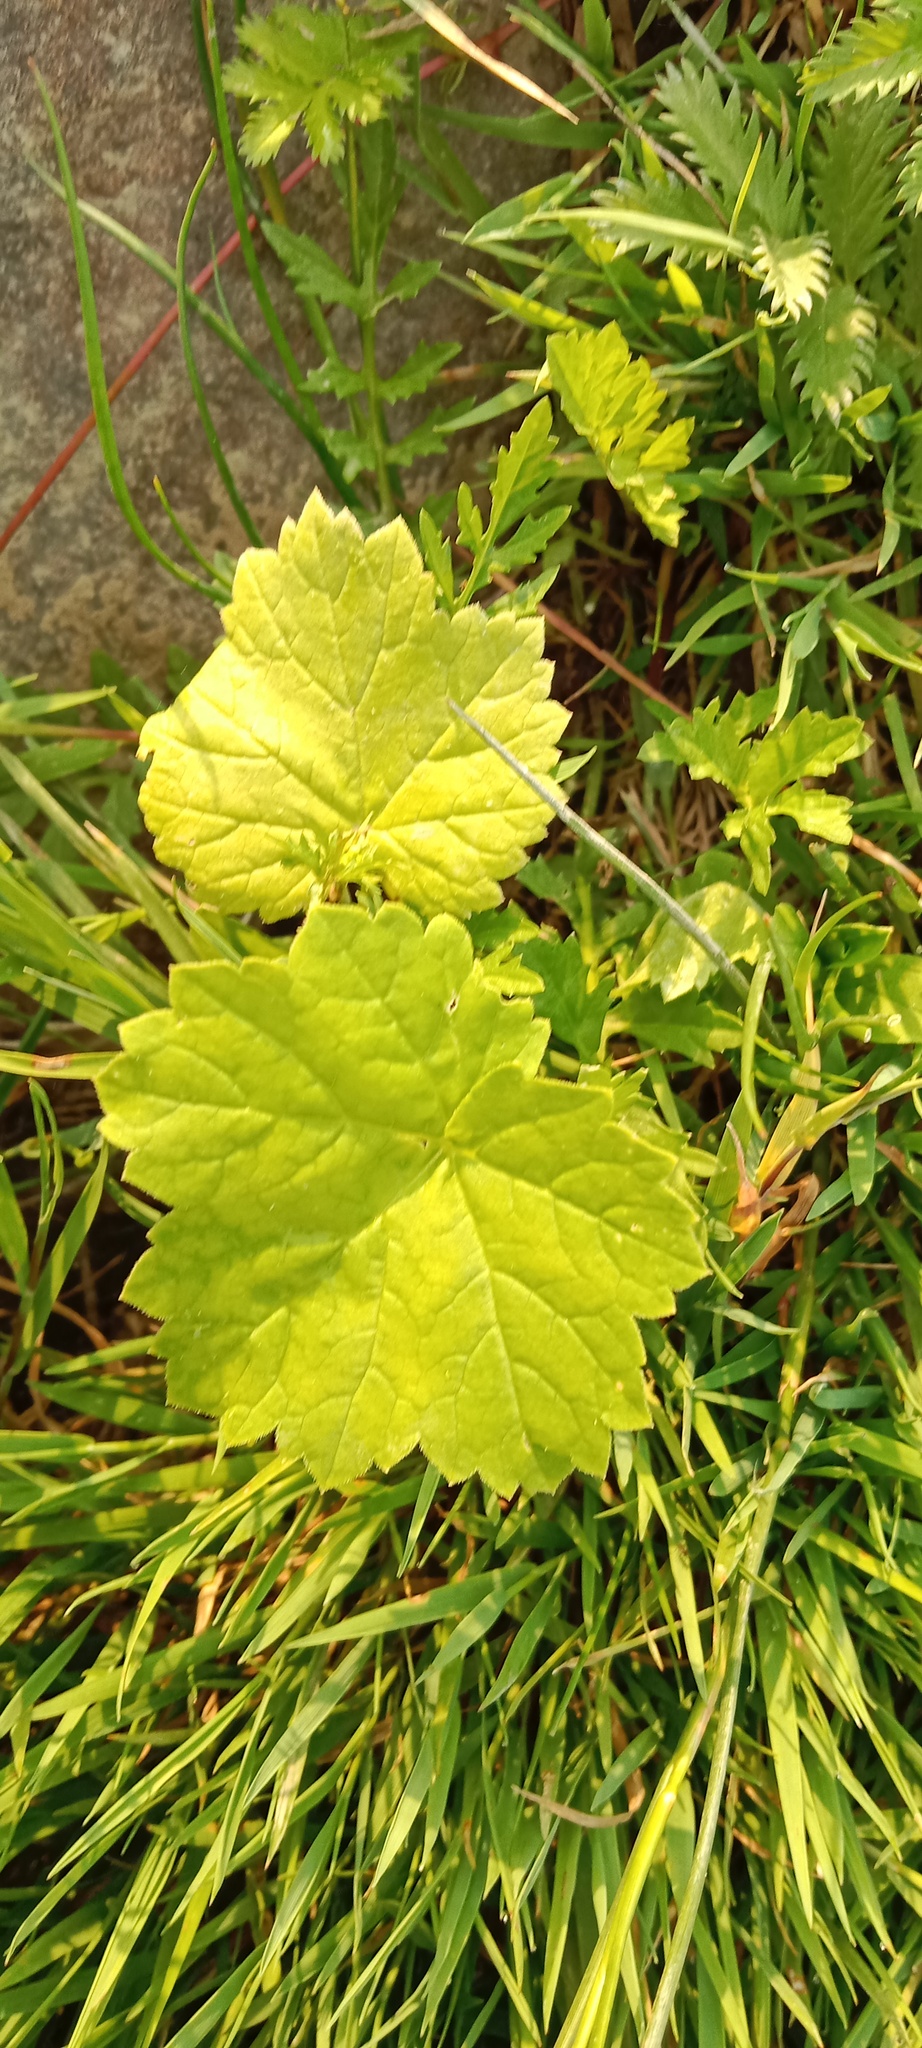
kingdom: Plantae
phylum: Tracheophyta
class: Magnoliopsida
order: Vitales
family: Vitaceae
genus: Vitis
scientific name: Vitis vinifera
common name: Grape-vine
